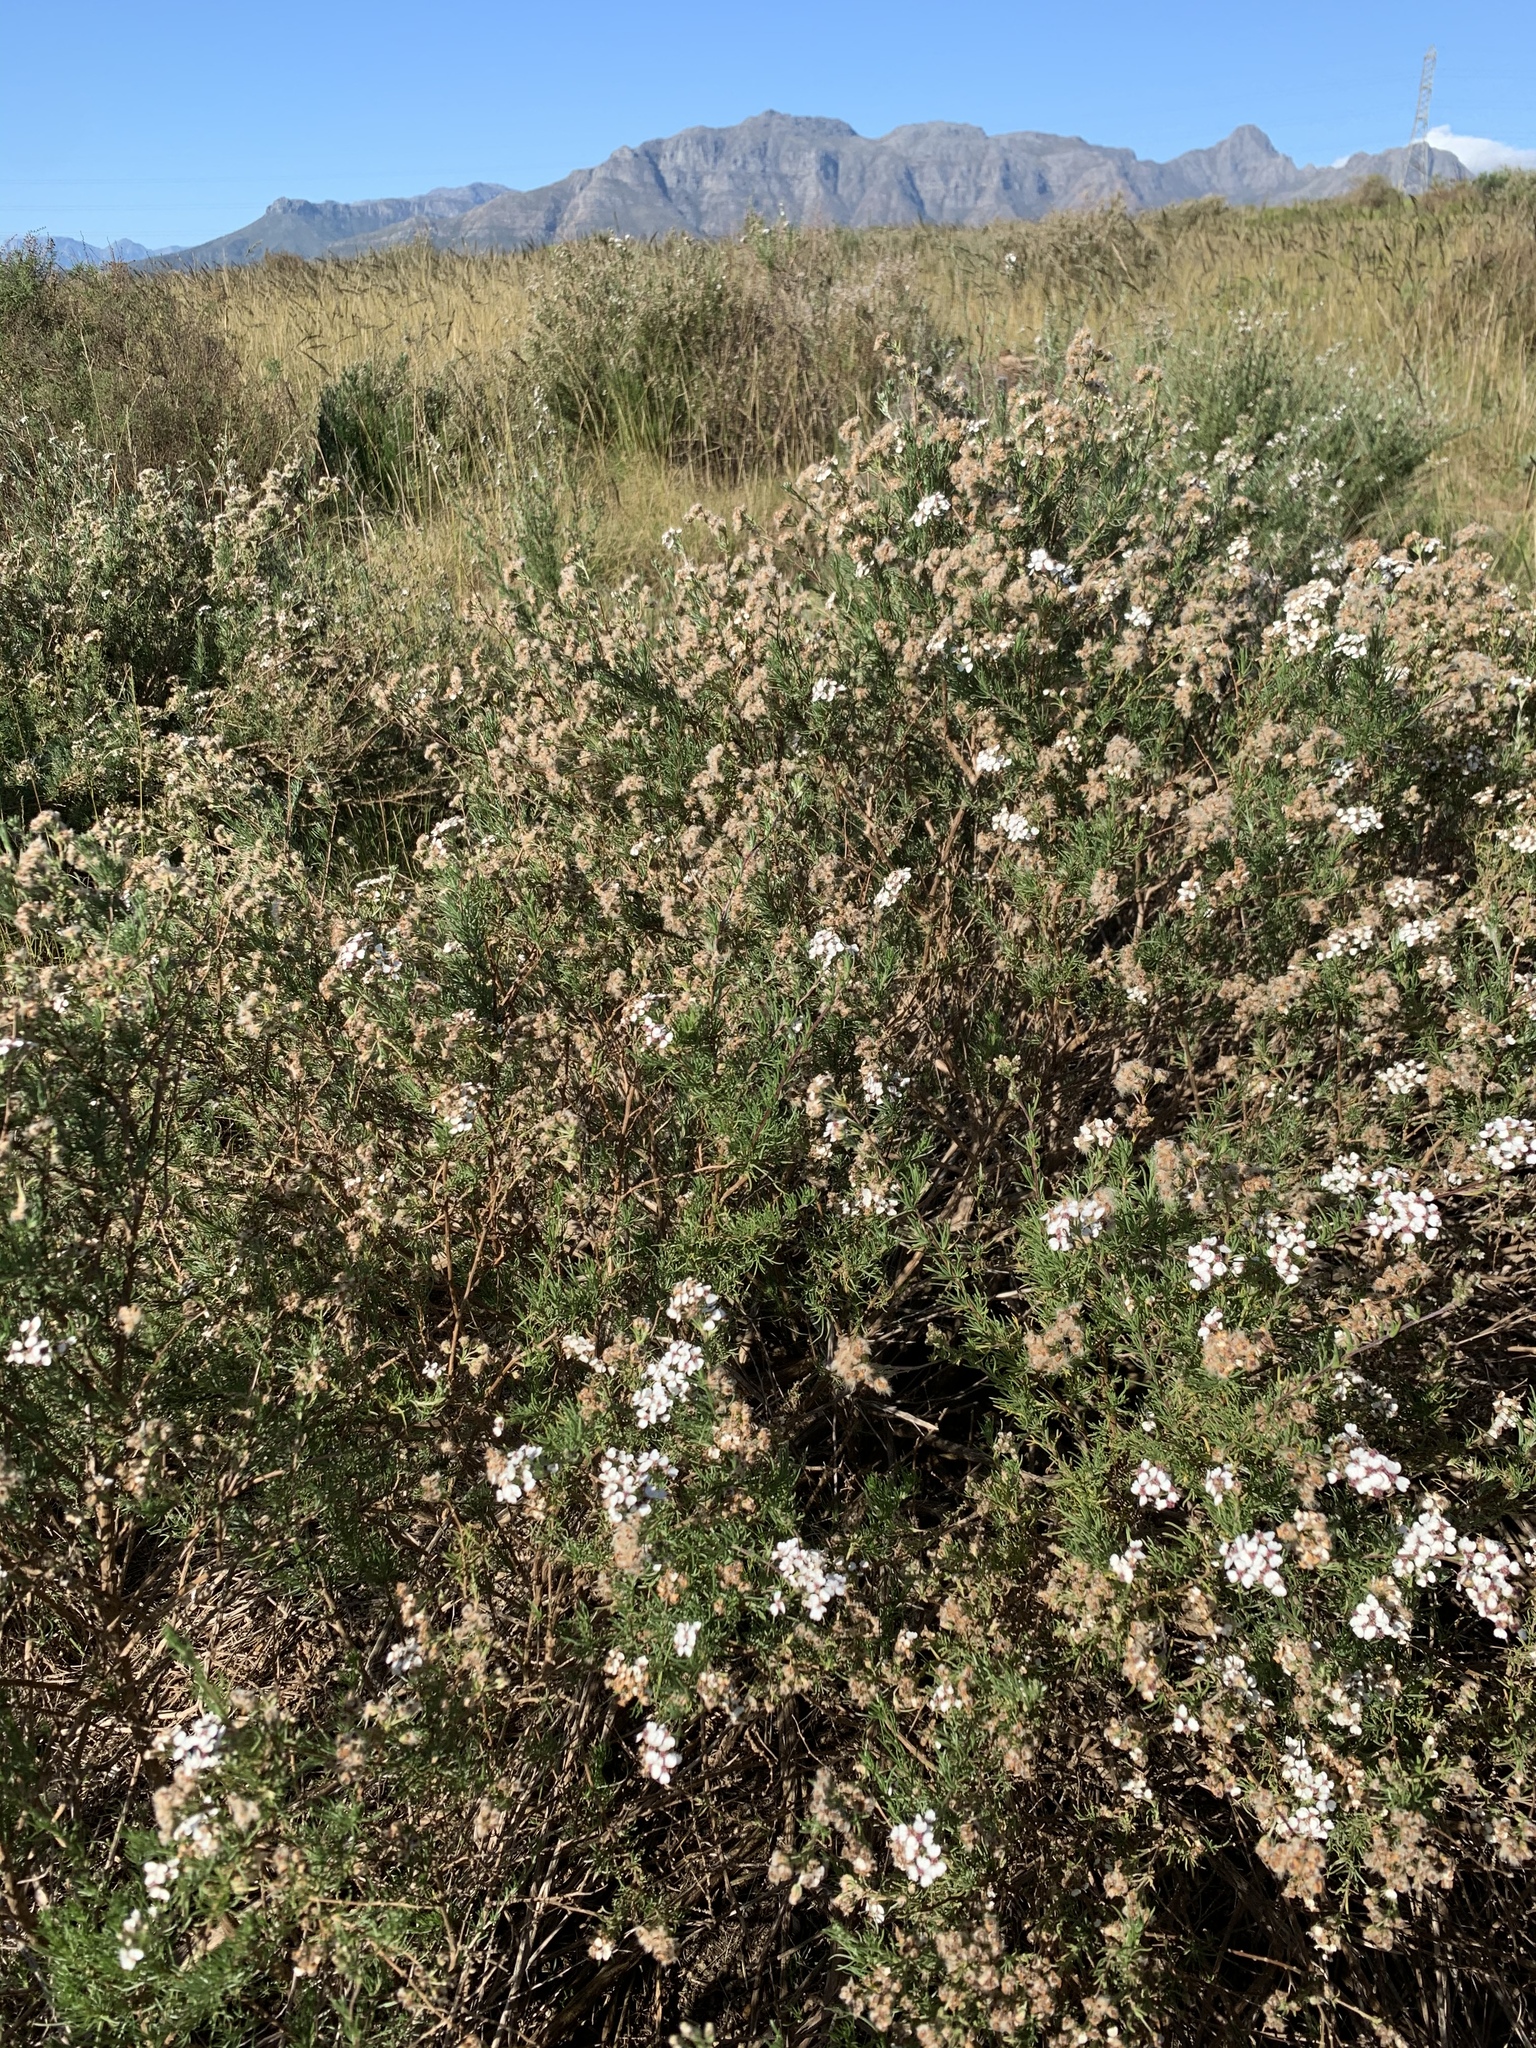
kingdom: Plantae
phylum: Tracheophyta
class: Magnoliopsida
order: Asterales
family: Asteraceae
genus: Eriocephalus
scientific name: Eriocephalus africanus
